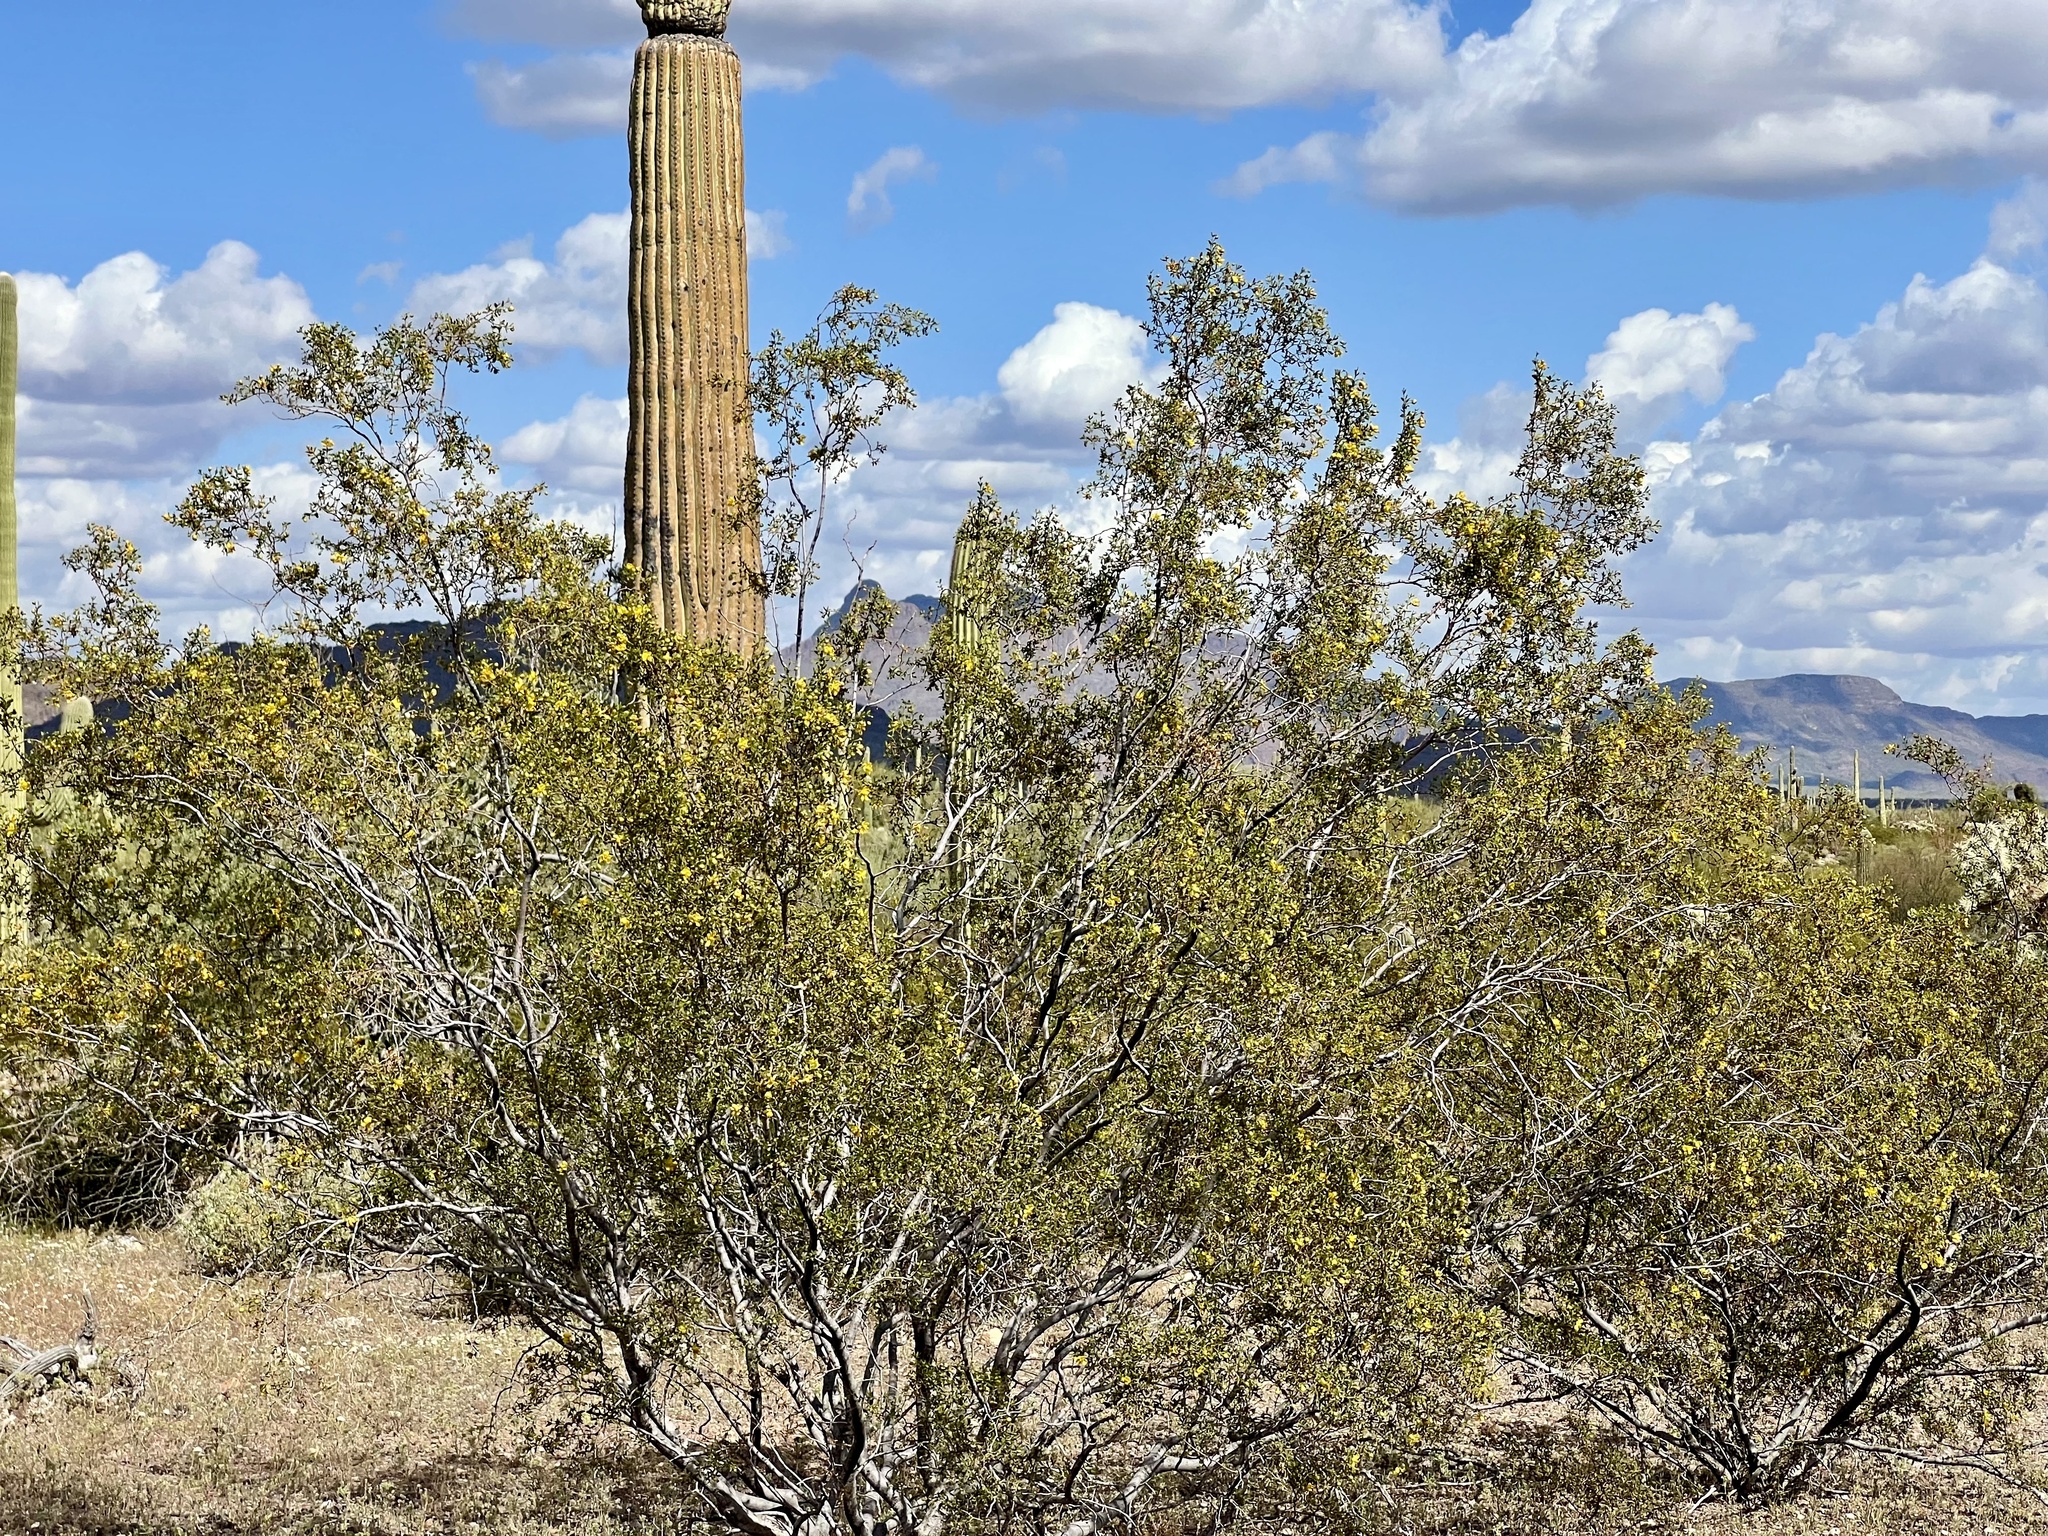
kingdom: Plantae
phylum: Tracheophyta
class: Magnoliopsida
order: Zygophyllales
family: Zygophyllaceae
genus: Larrea
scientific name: Larrea tridentata
